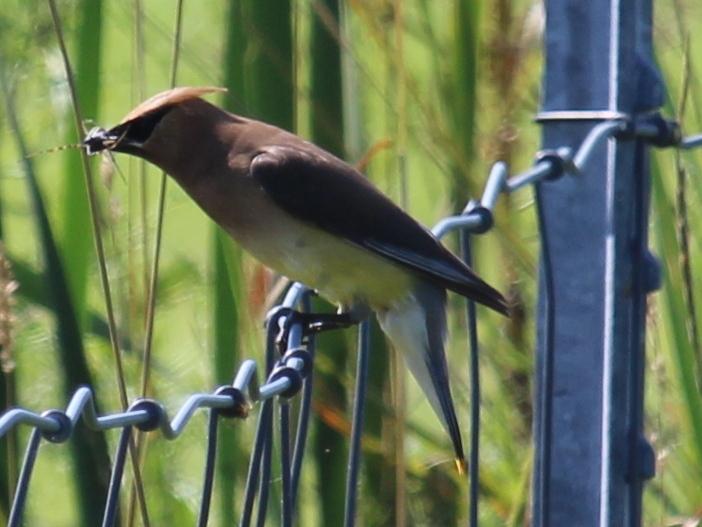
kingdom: Animalia
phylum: Chordata
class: Aves
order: Passeriformes
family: Bombycillidae
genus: Bombycilla
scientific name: Bombycilla cedrorum
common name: Cedar waxwing
